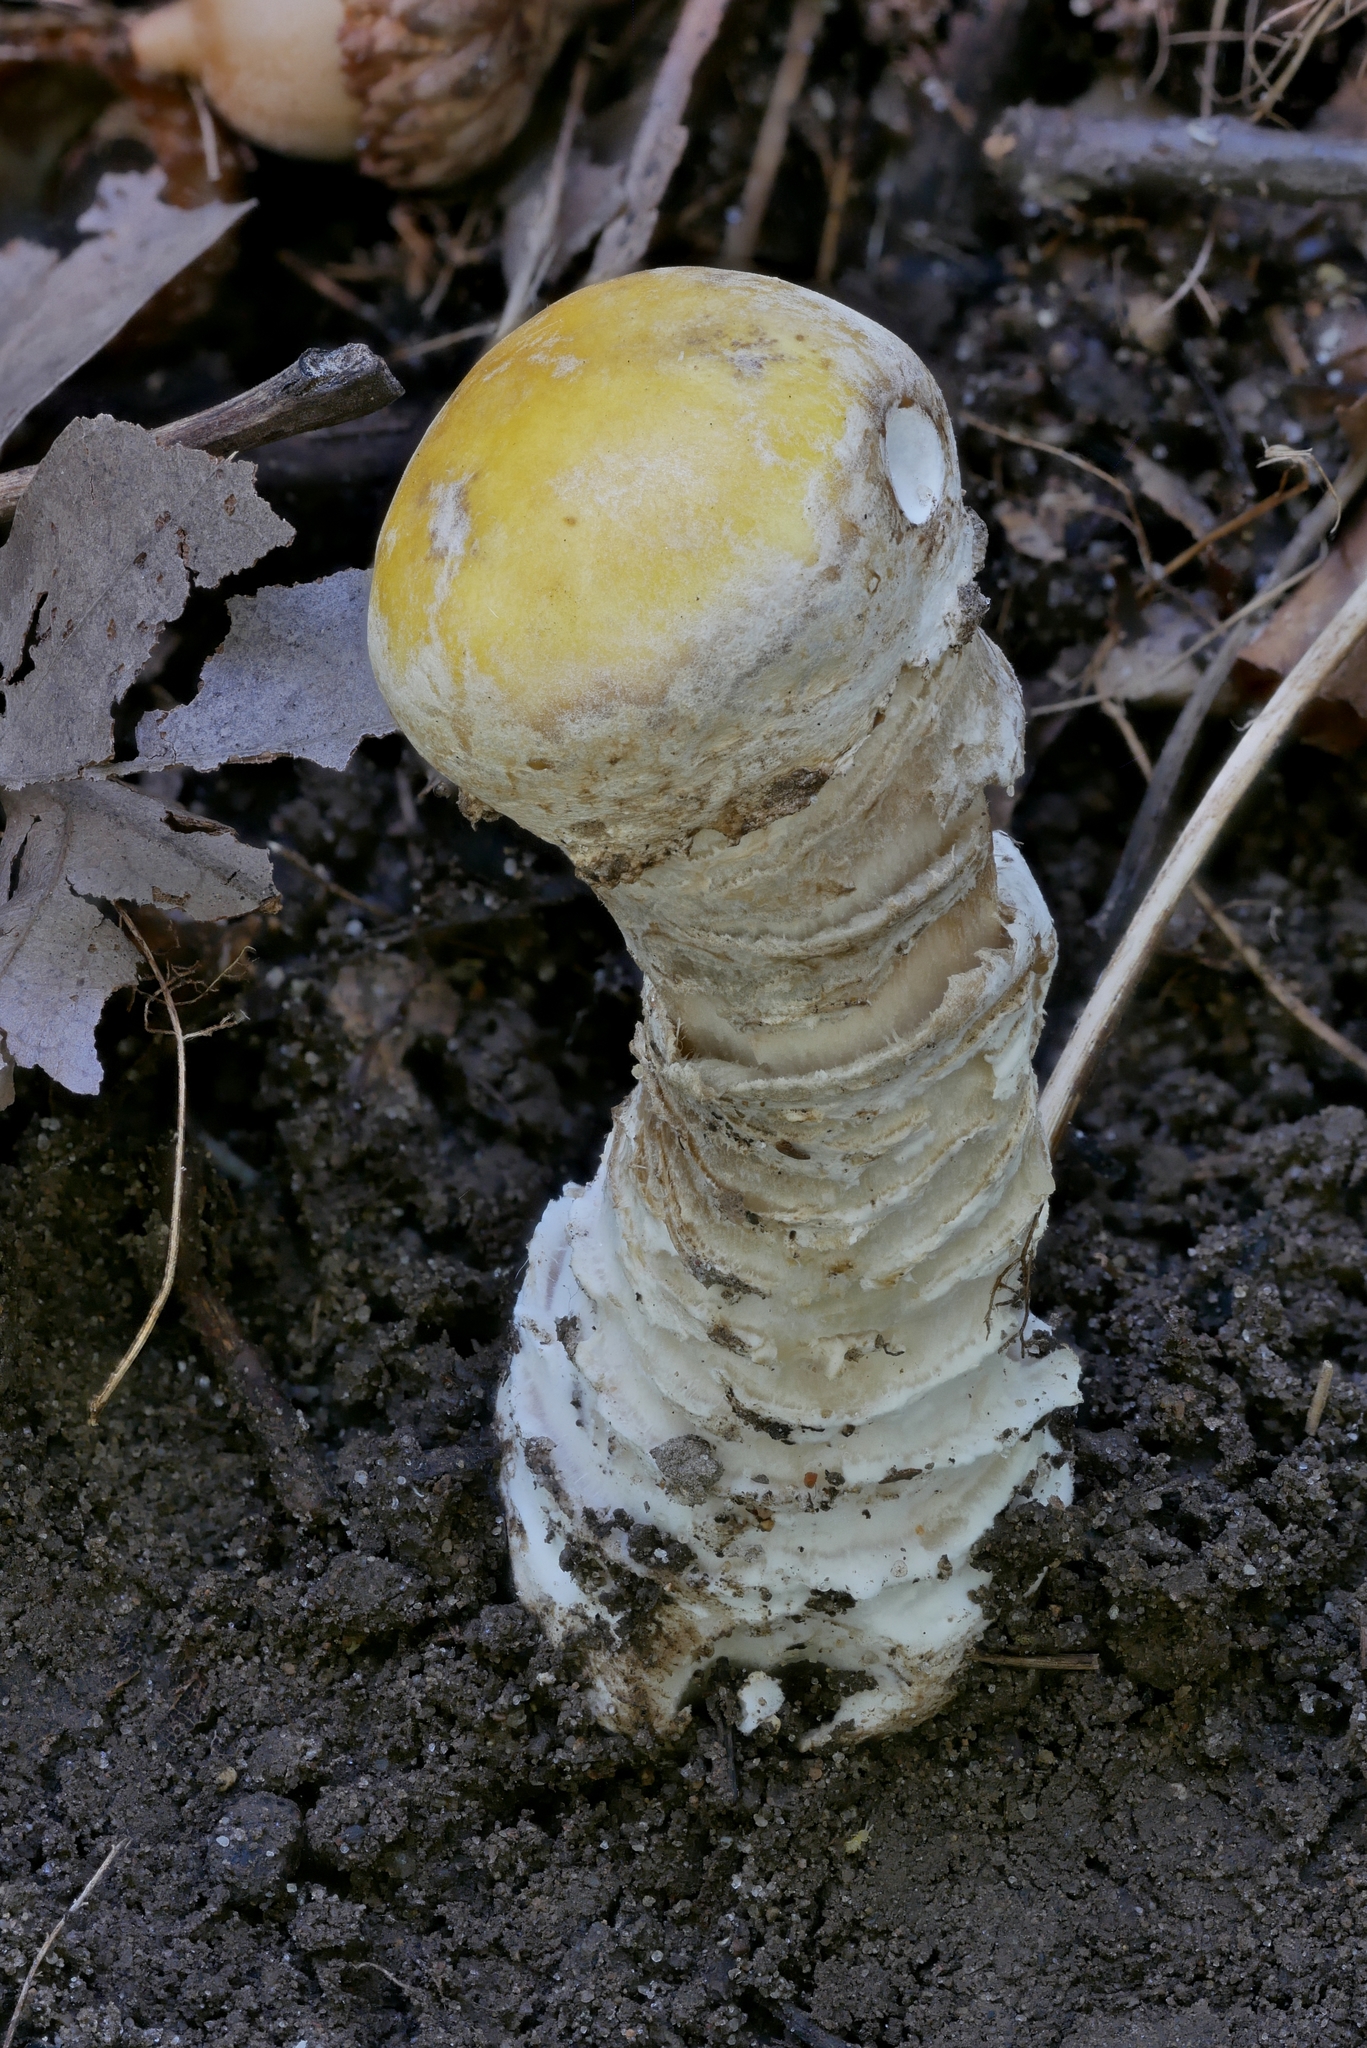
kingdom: Fungi
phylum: Basidiomycota
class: Agaricomycetes
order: Agaricales
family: Amanitaceae
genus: Amanita
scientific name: Amanita flavorubens
